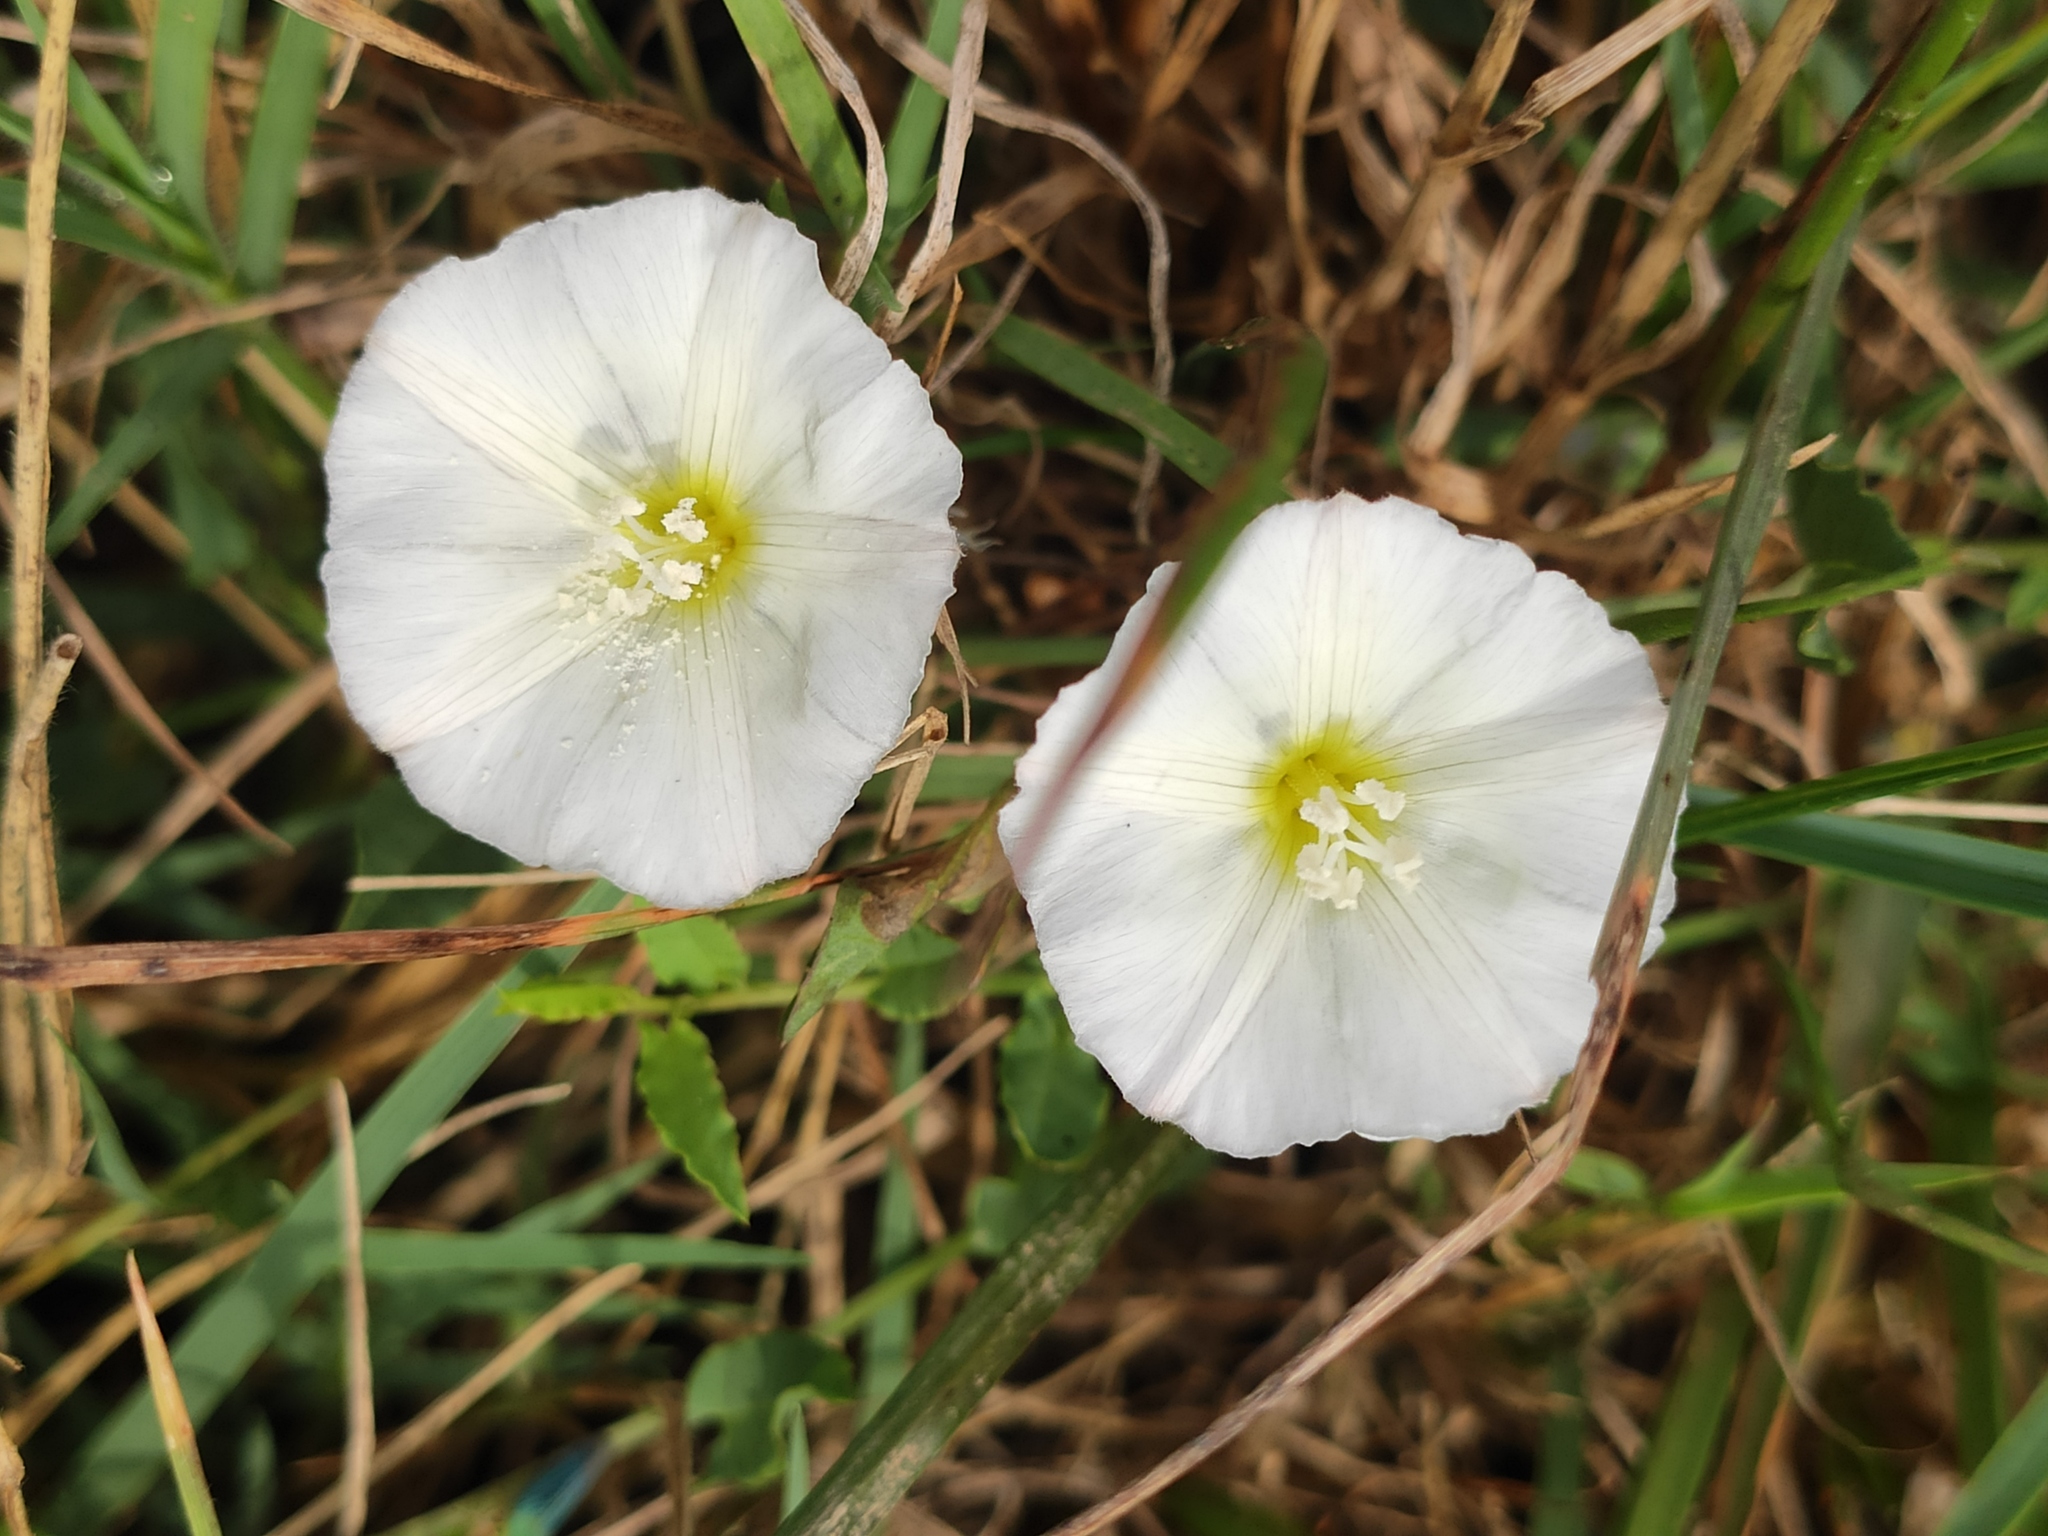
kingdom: Plantae
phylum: Tracheophyta
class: Magnoliopsida
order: Solanales
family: Convolvulaceae
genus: Convolvulus
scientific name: Convolvulus arvensis
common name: Field bindweed
